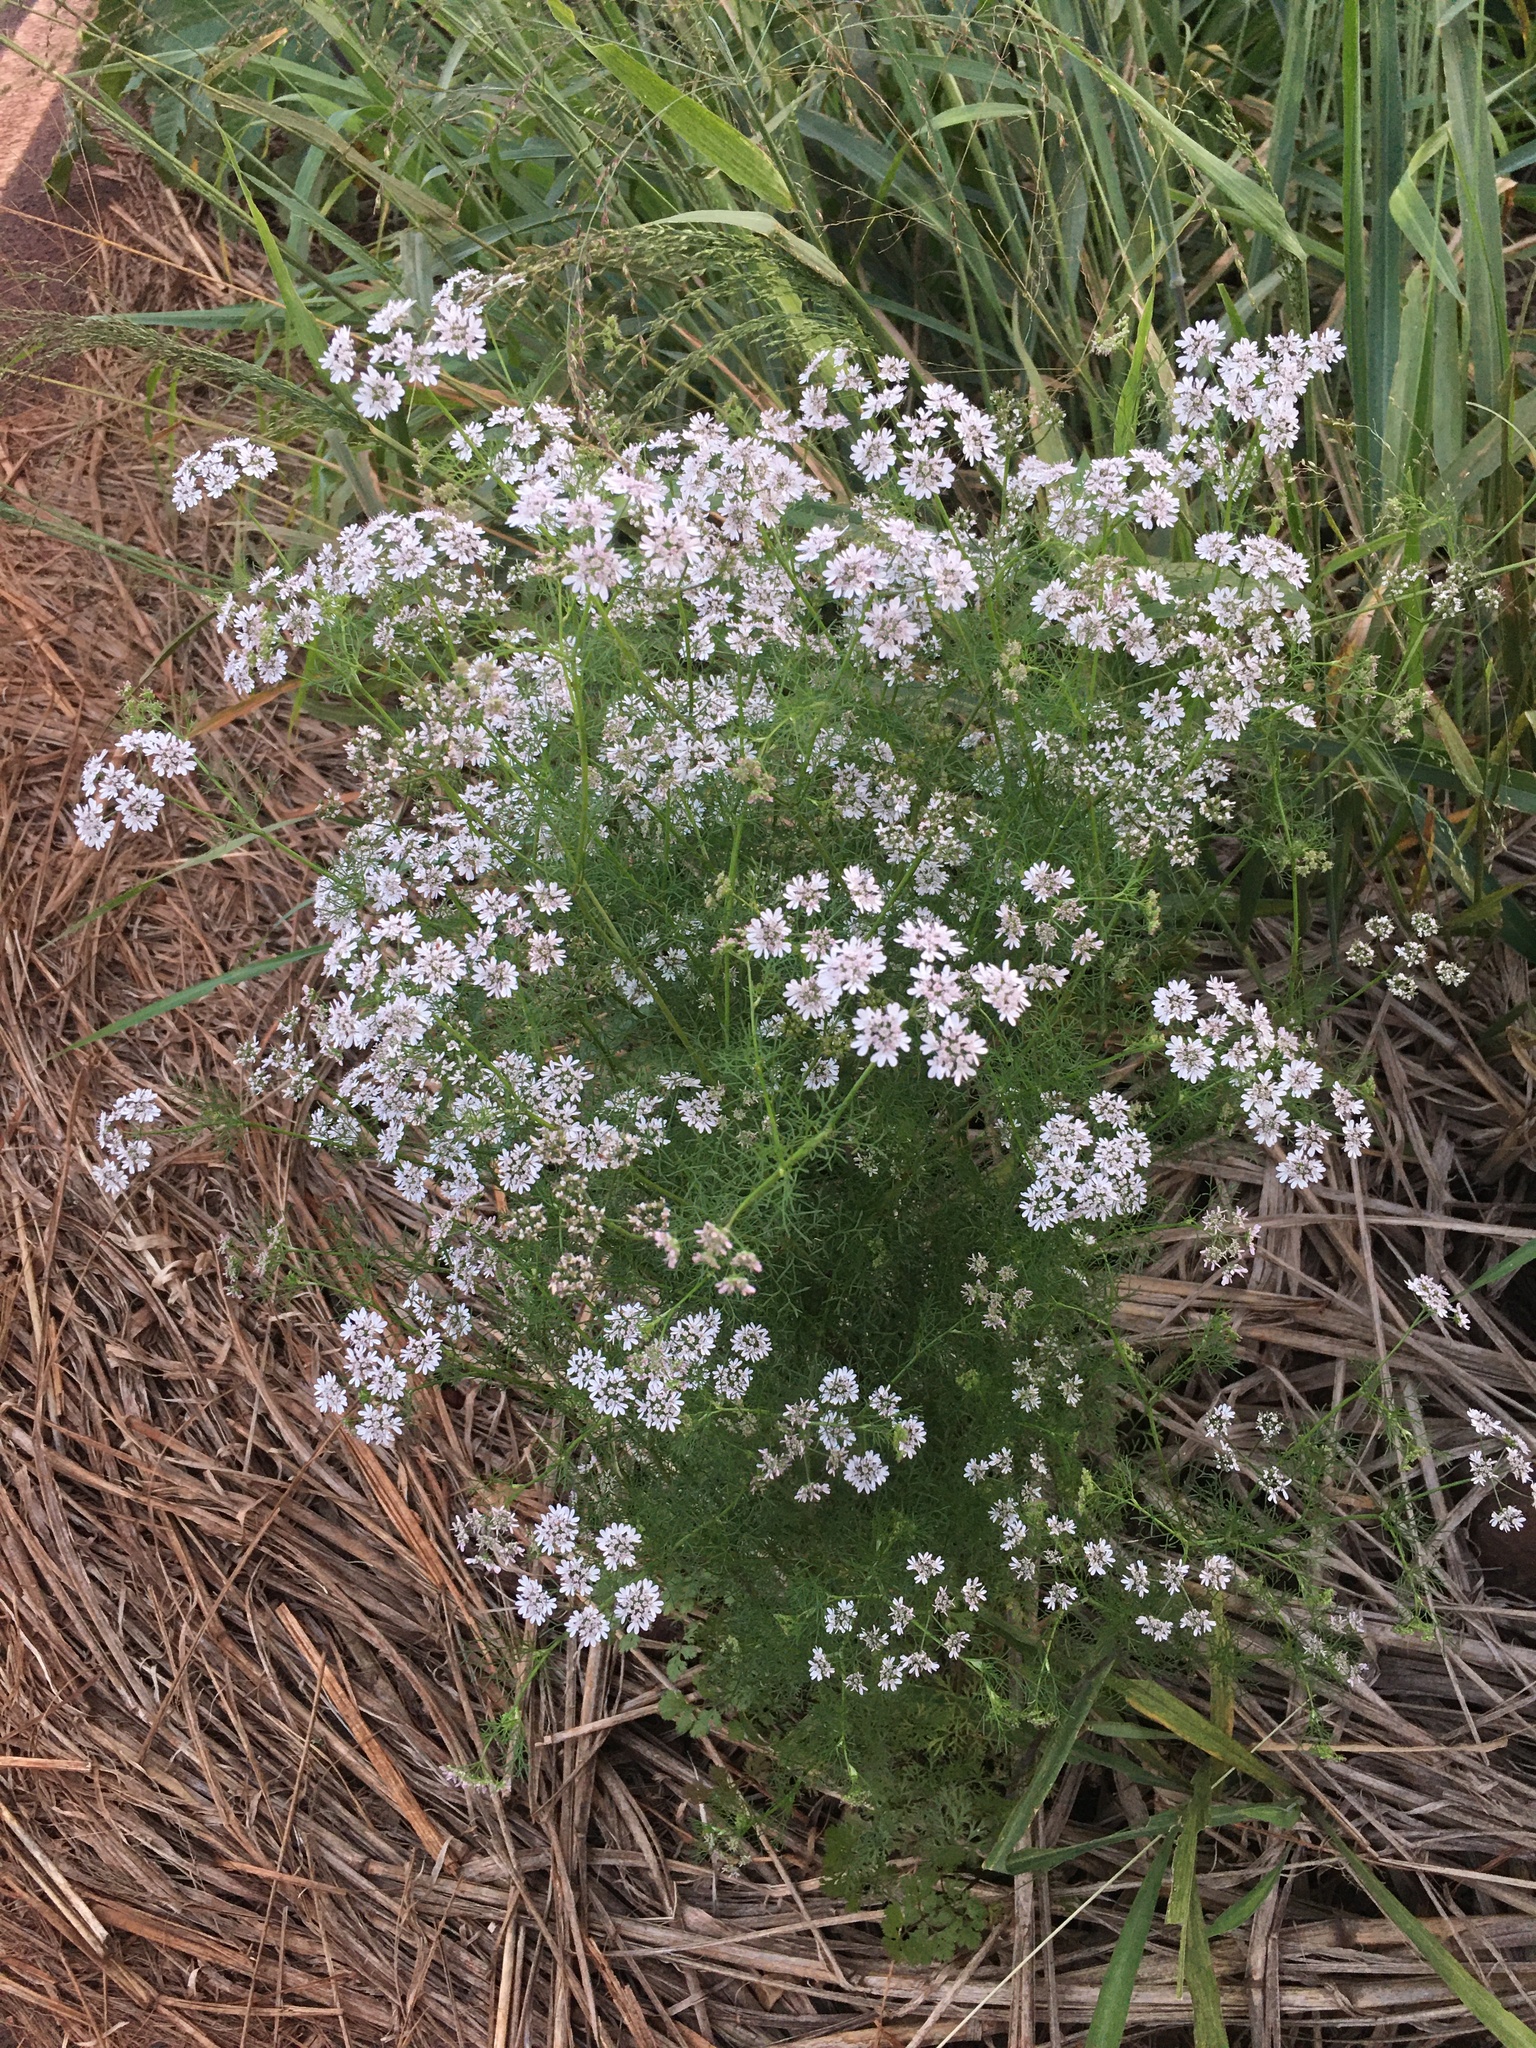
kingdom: Plantae
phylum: Tracheophyta
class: Magnoliopsida
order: Apiales
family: Apiaceae
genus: Coriandrum
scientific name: Coriandrum sativum
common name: Coriander
